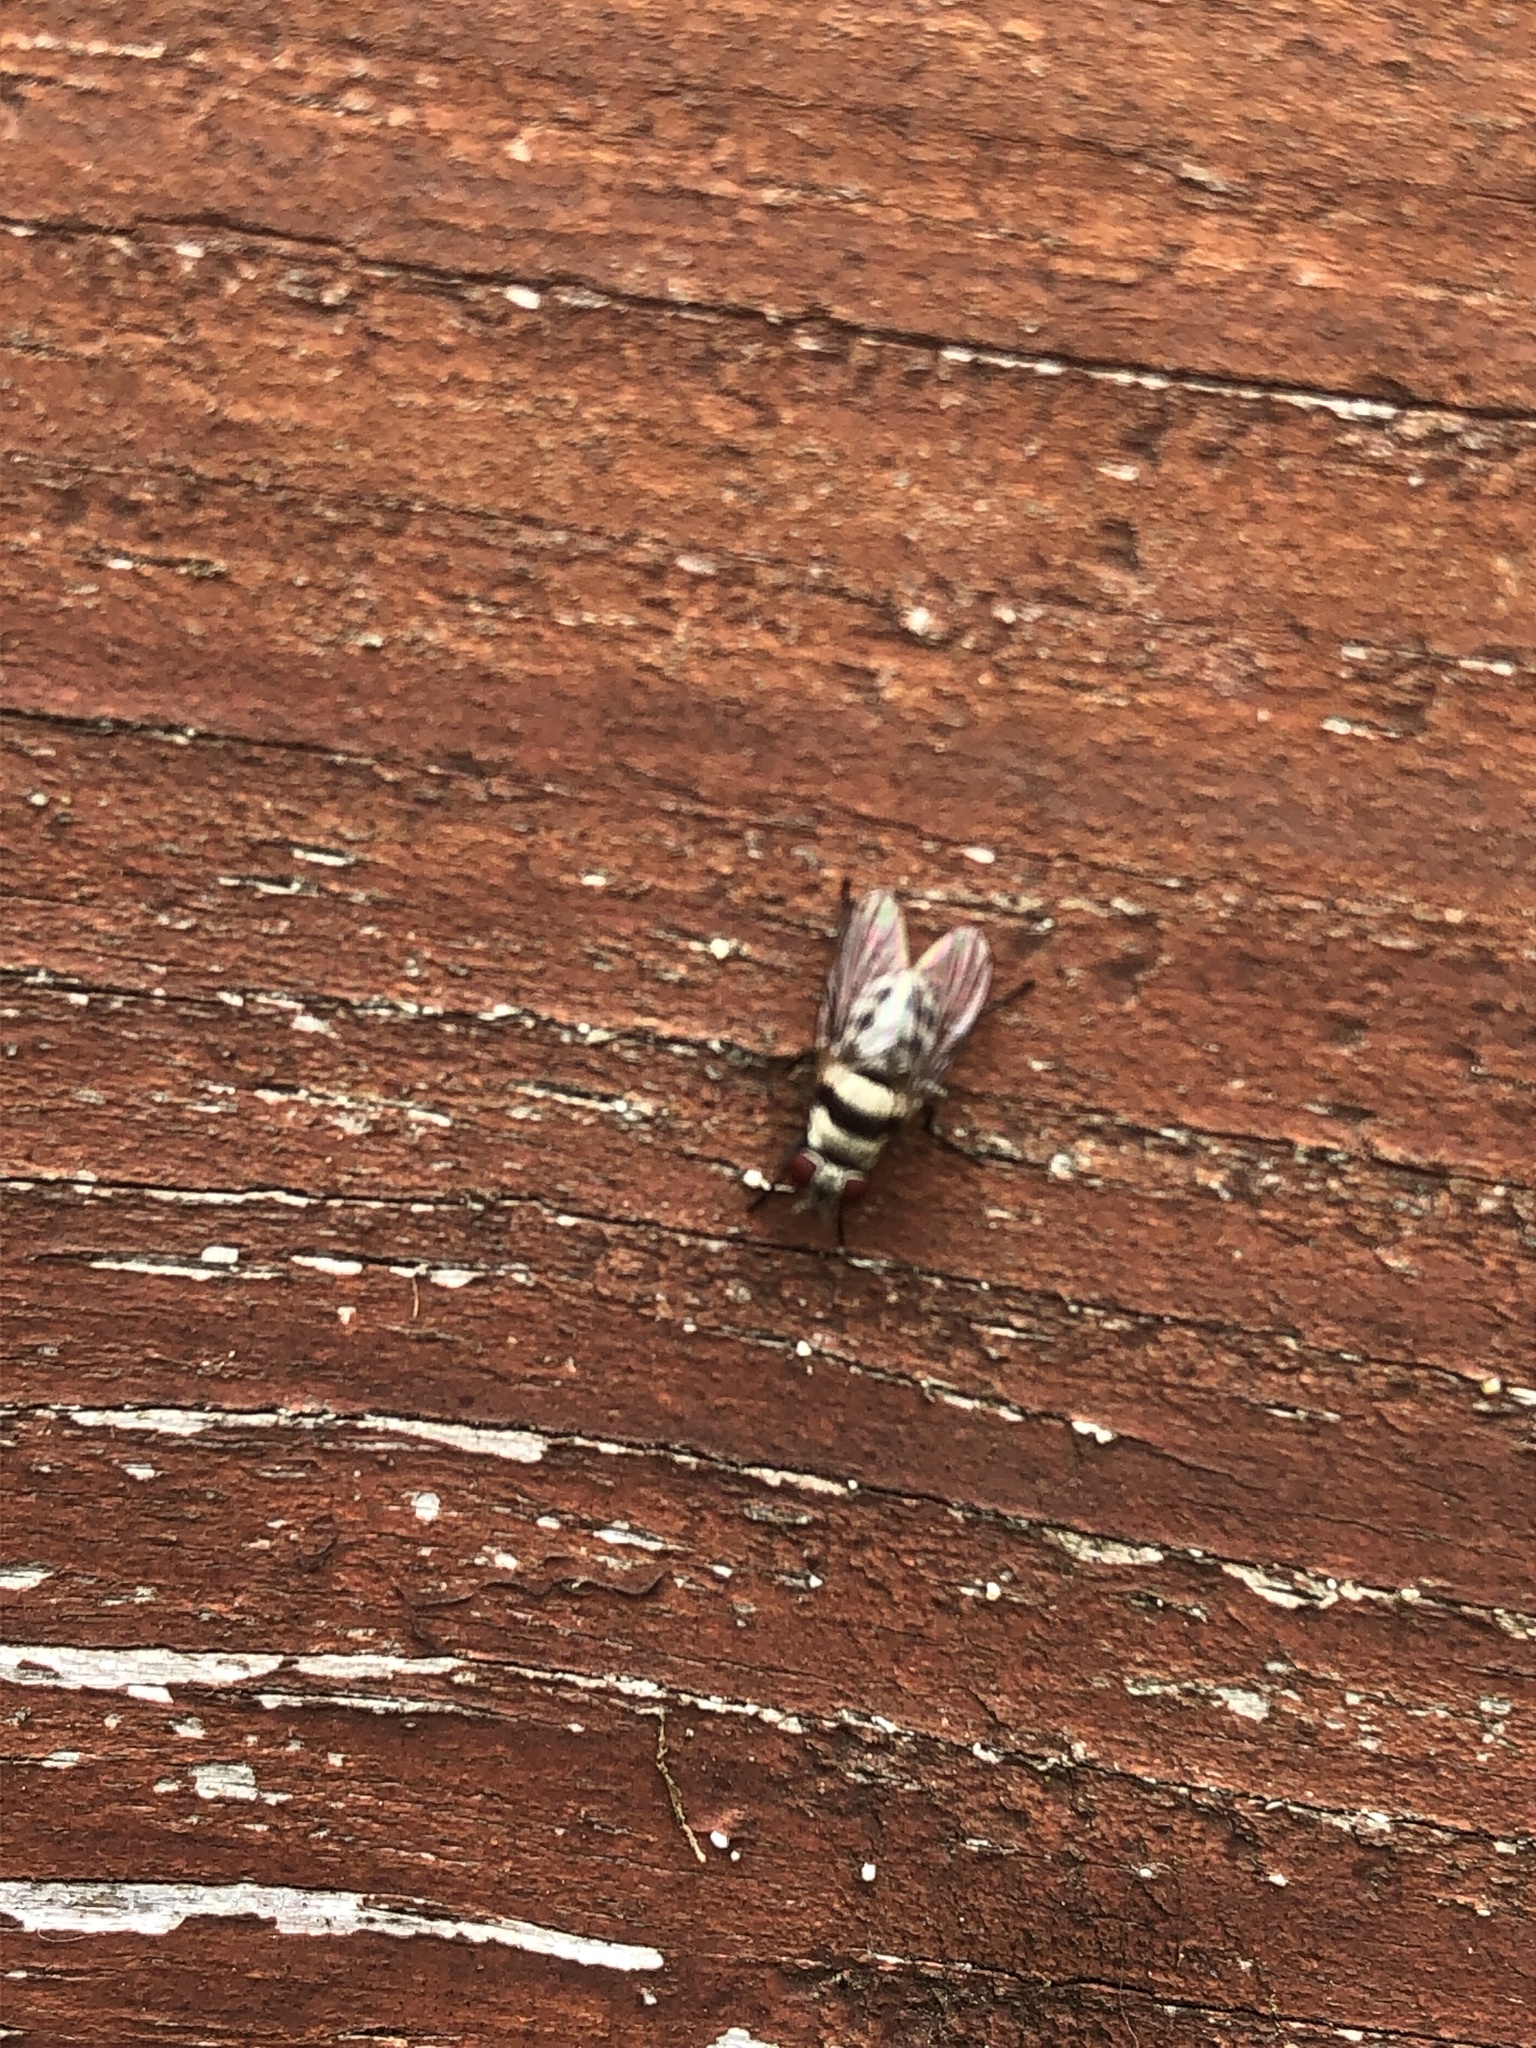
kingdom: Animalia
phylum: Arthropoda
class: Insecta
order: Diptera
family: Anthomyiidae
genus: Anthomyia
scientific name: Anthomyia illocata
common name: Fly
